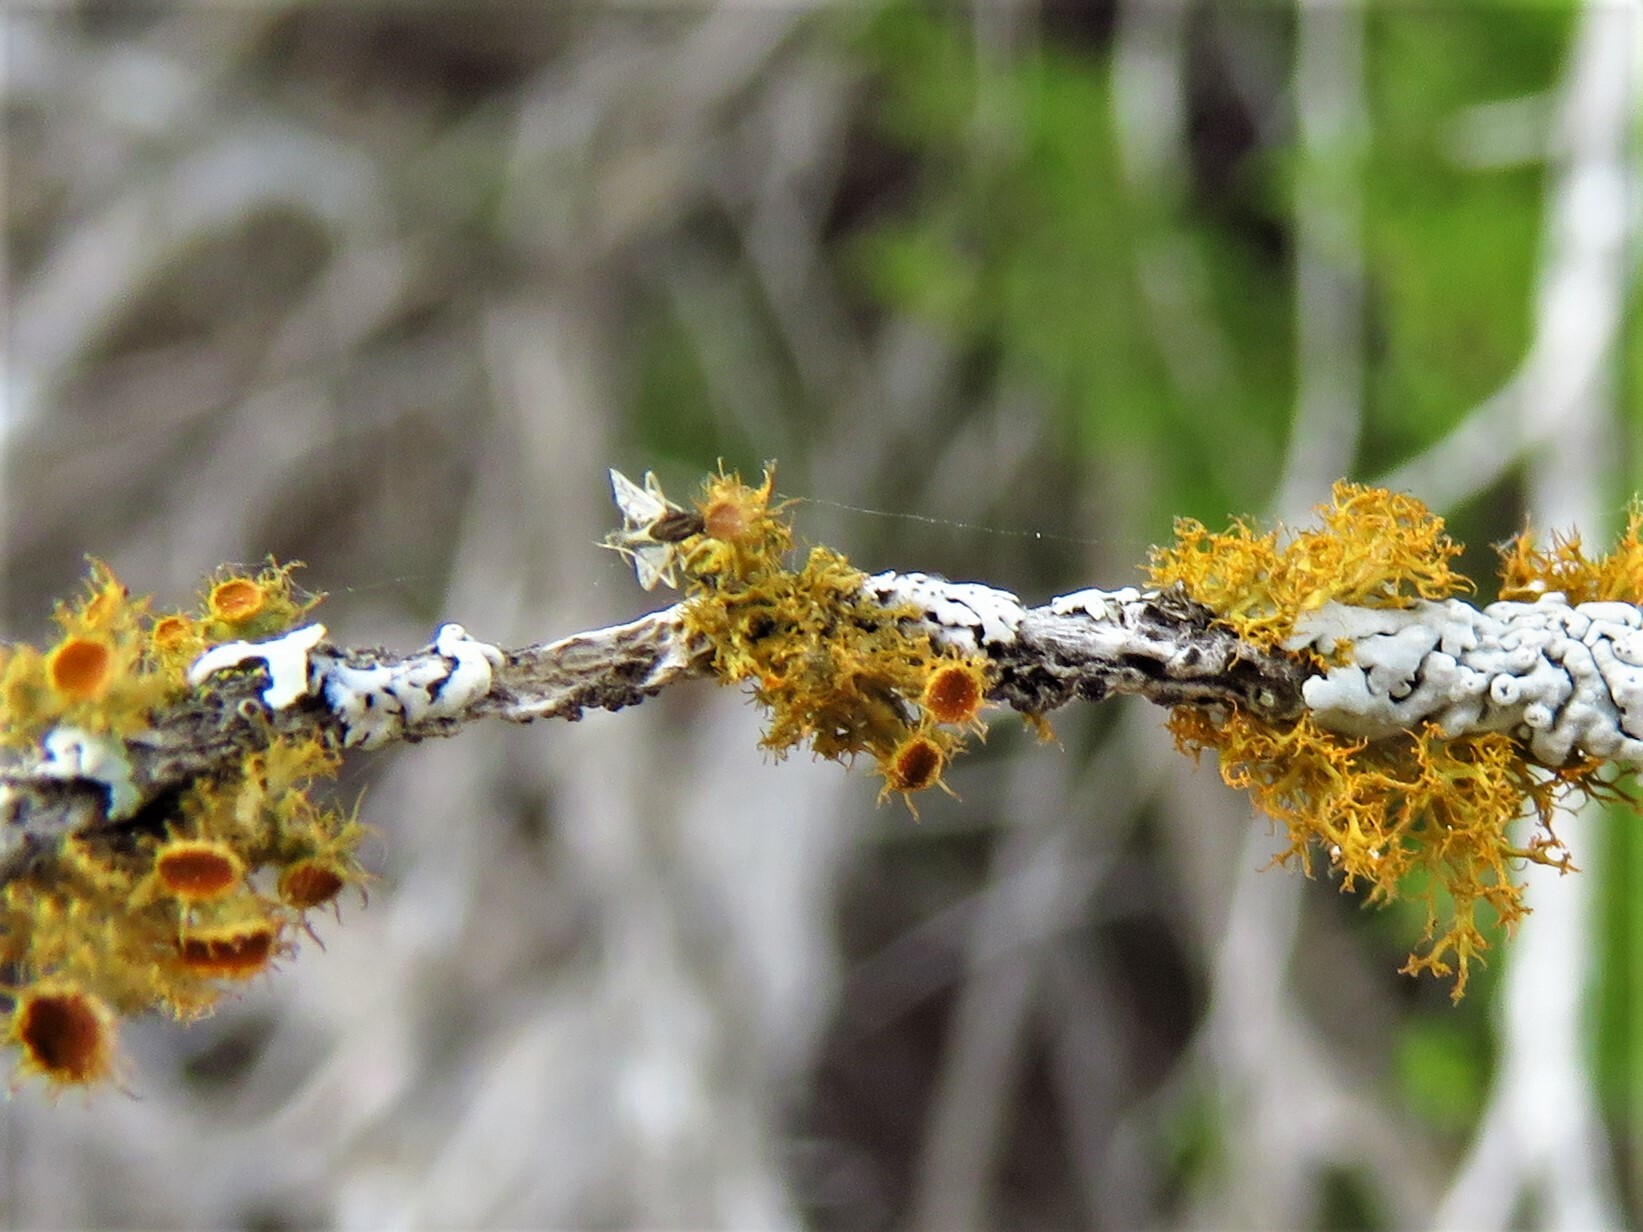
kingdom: Fungi
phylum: Ascomycota
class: Lecanoromycetes
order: Teloschistales
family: Teloschistaceae
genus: Niorma
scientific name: Niorma chrysophthalma
